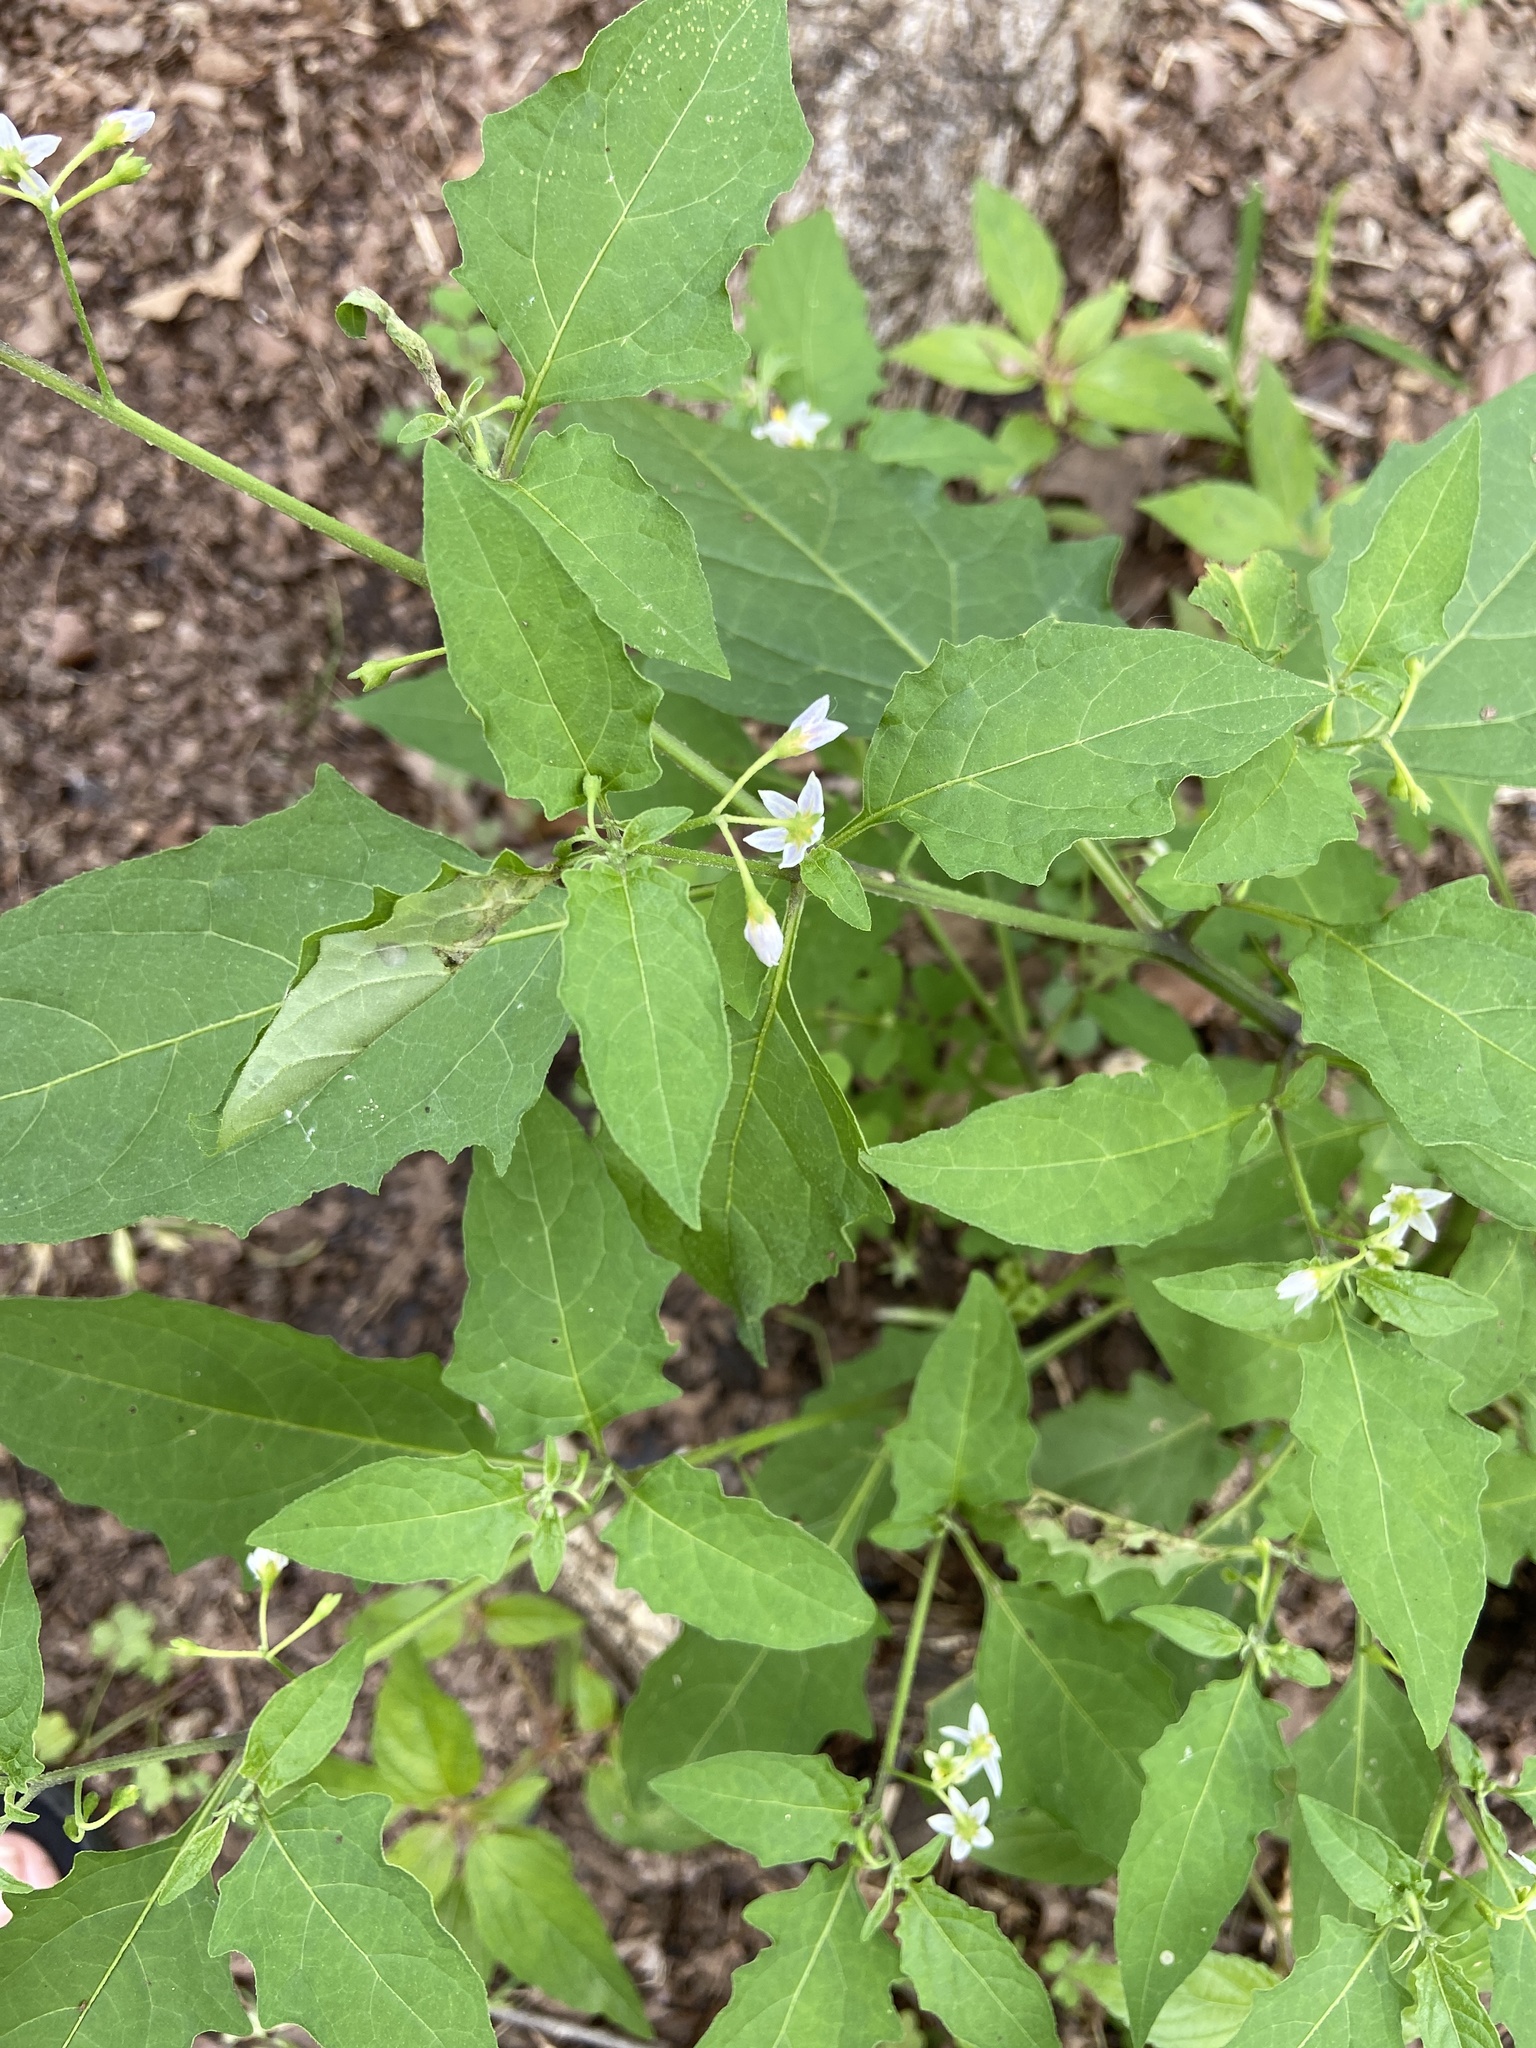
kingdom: Plantae
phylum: Tracheophyta
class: Magnoliopsida
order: Solanales
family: Solanaceae
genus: Solanum
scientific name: Solanum emulans
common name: Eastern black nightshade
